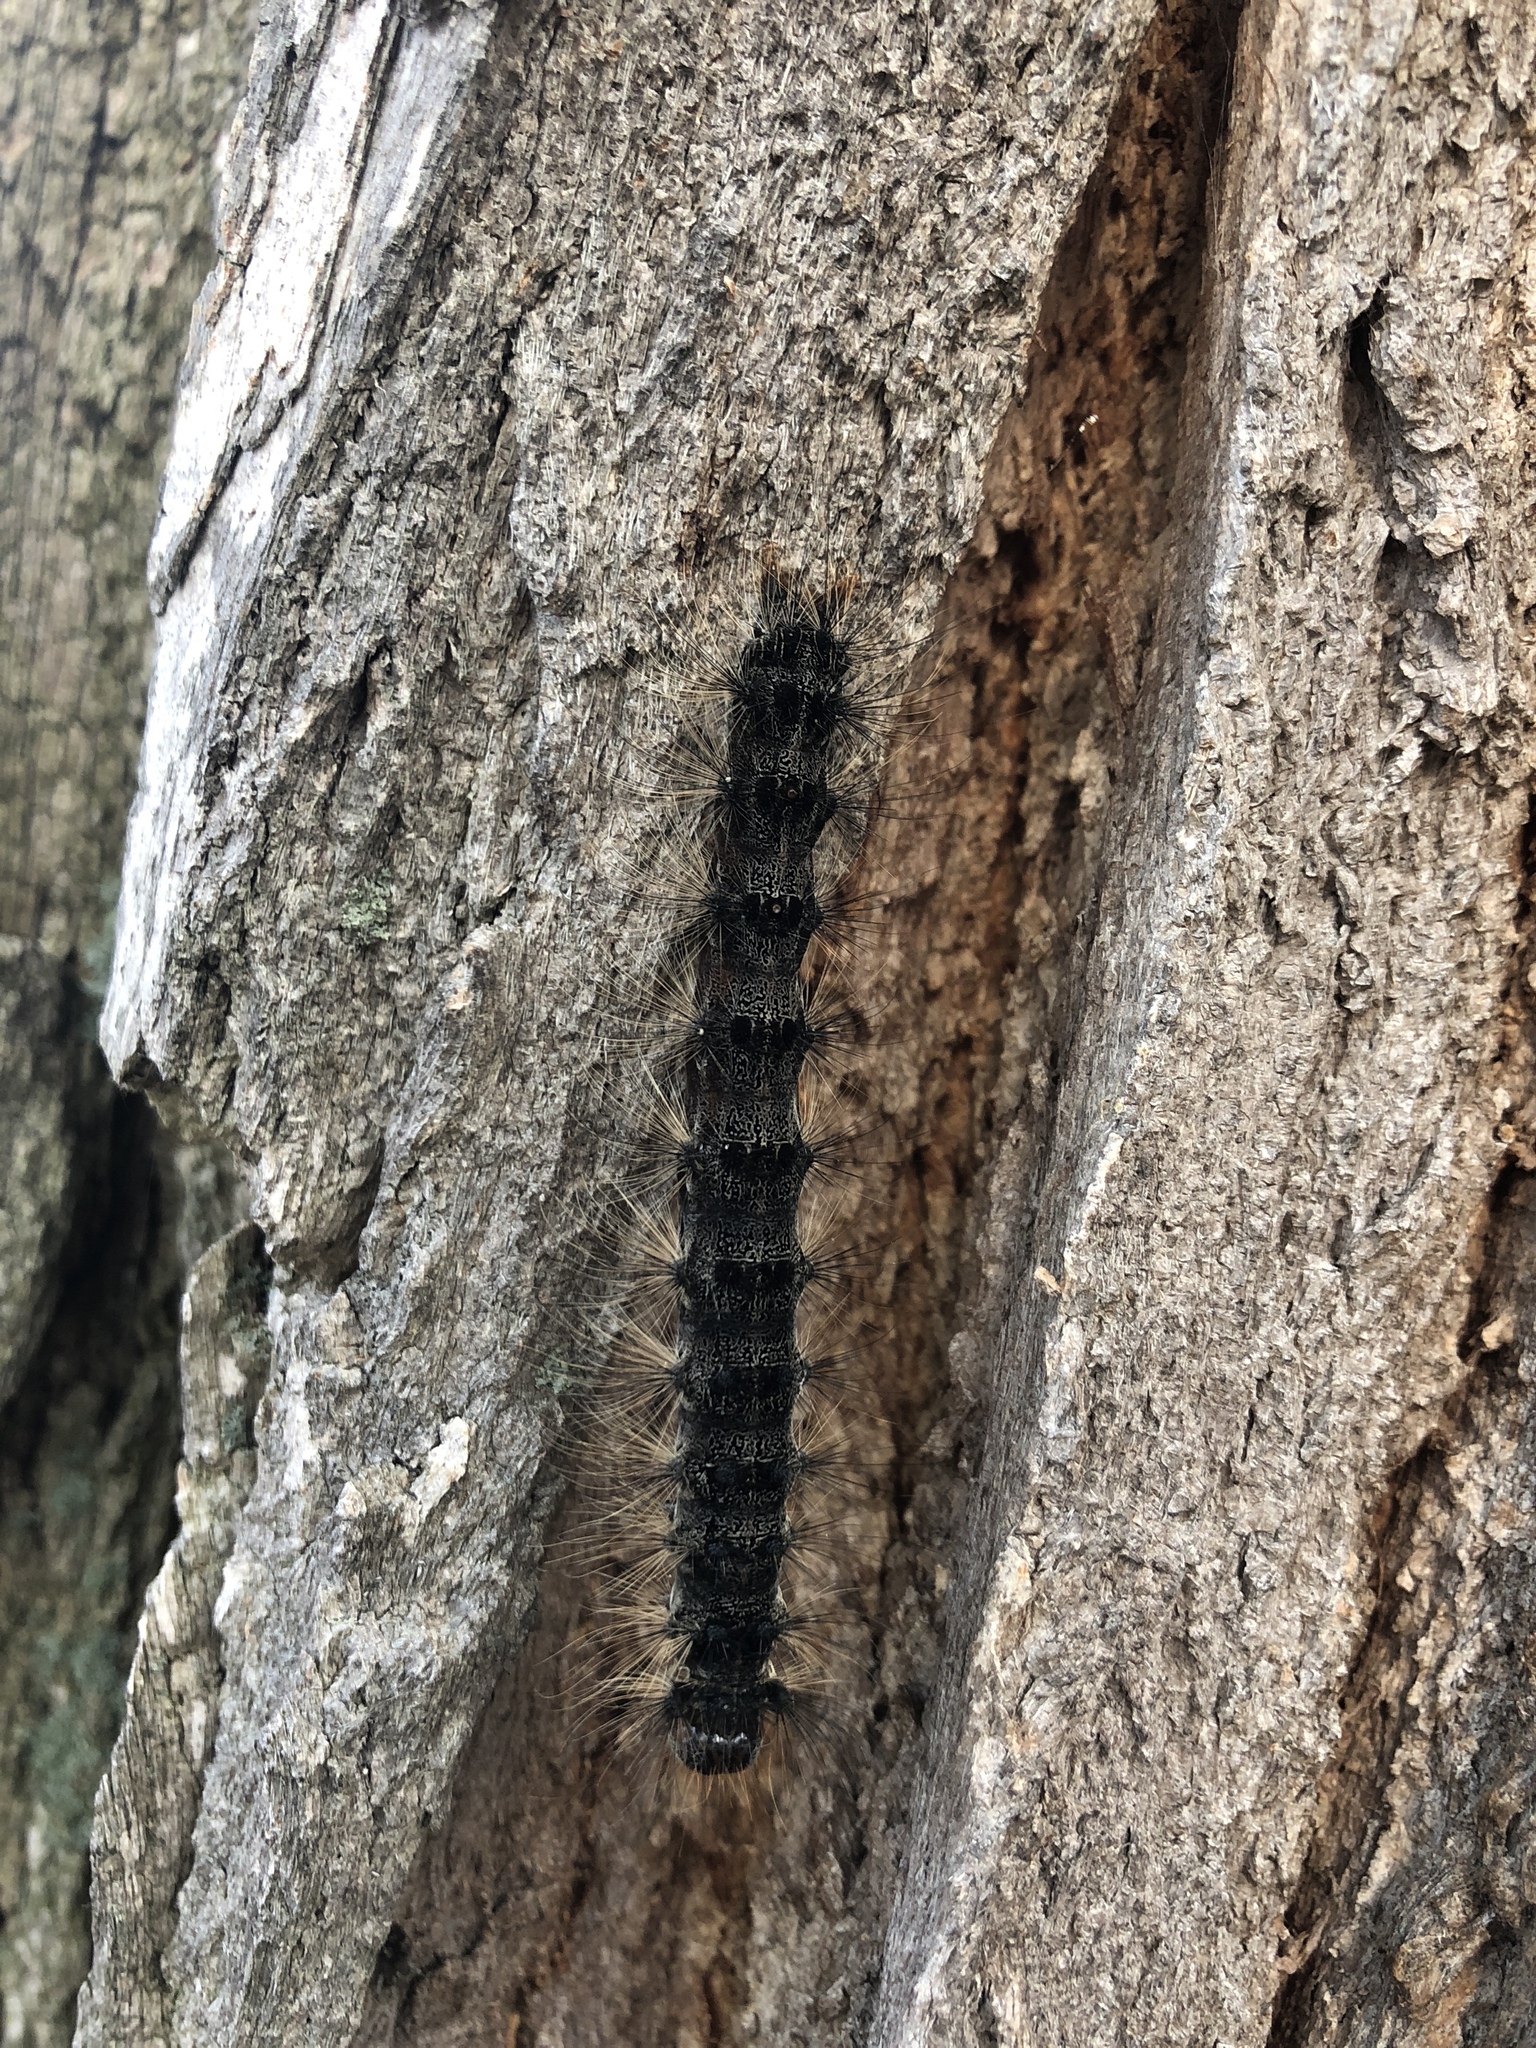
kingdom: Animalia
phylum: Arthropoda
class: Insecta
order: Lepidoptera
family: Erebidae
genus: Lymantria
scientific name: Lymantria dispar
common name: Gypsy moth
